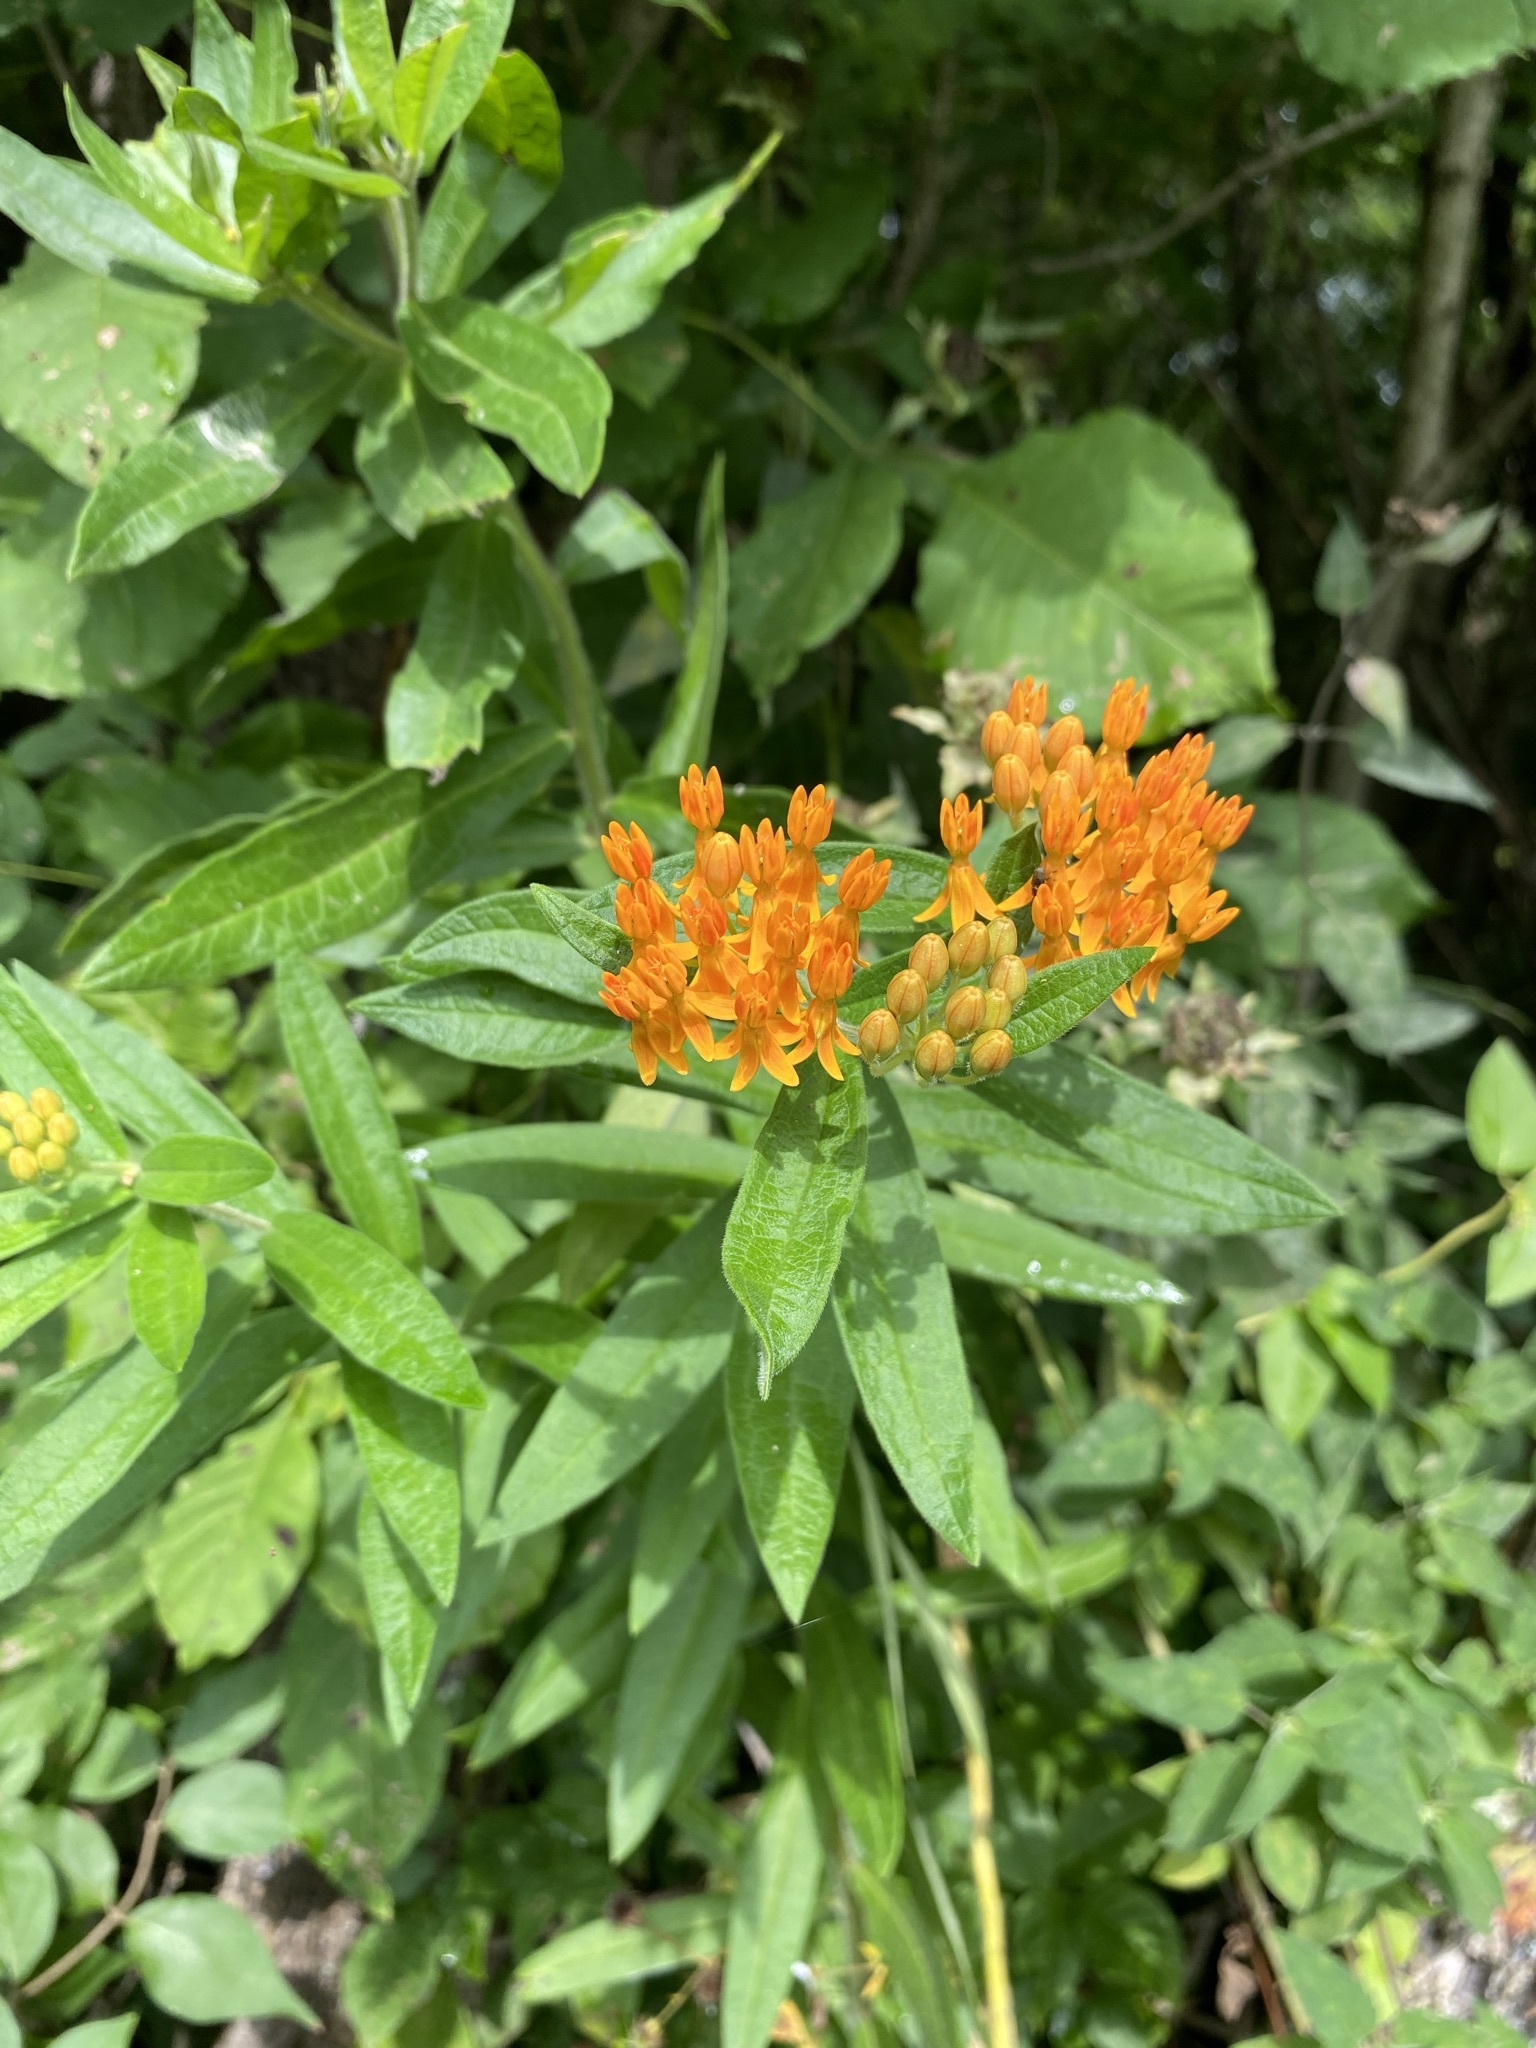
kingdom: Plantae
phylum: Tracheophyta
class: Magnoliopsida
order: Gentianales
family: Apocynaceae
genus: Asclepias
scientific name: Asclepias tuberosa
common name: Butterfly milkweed
